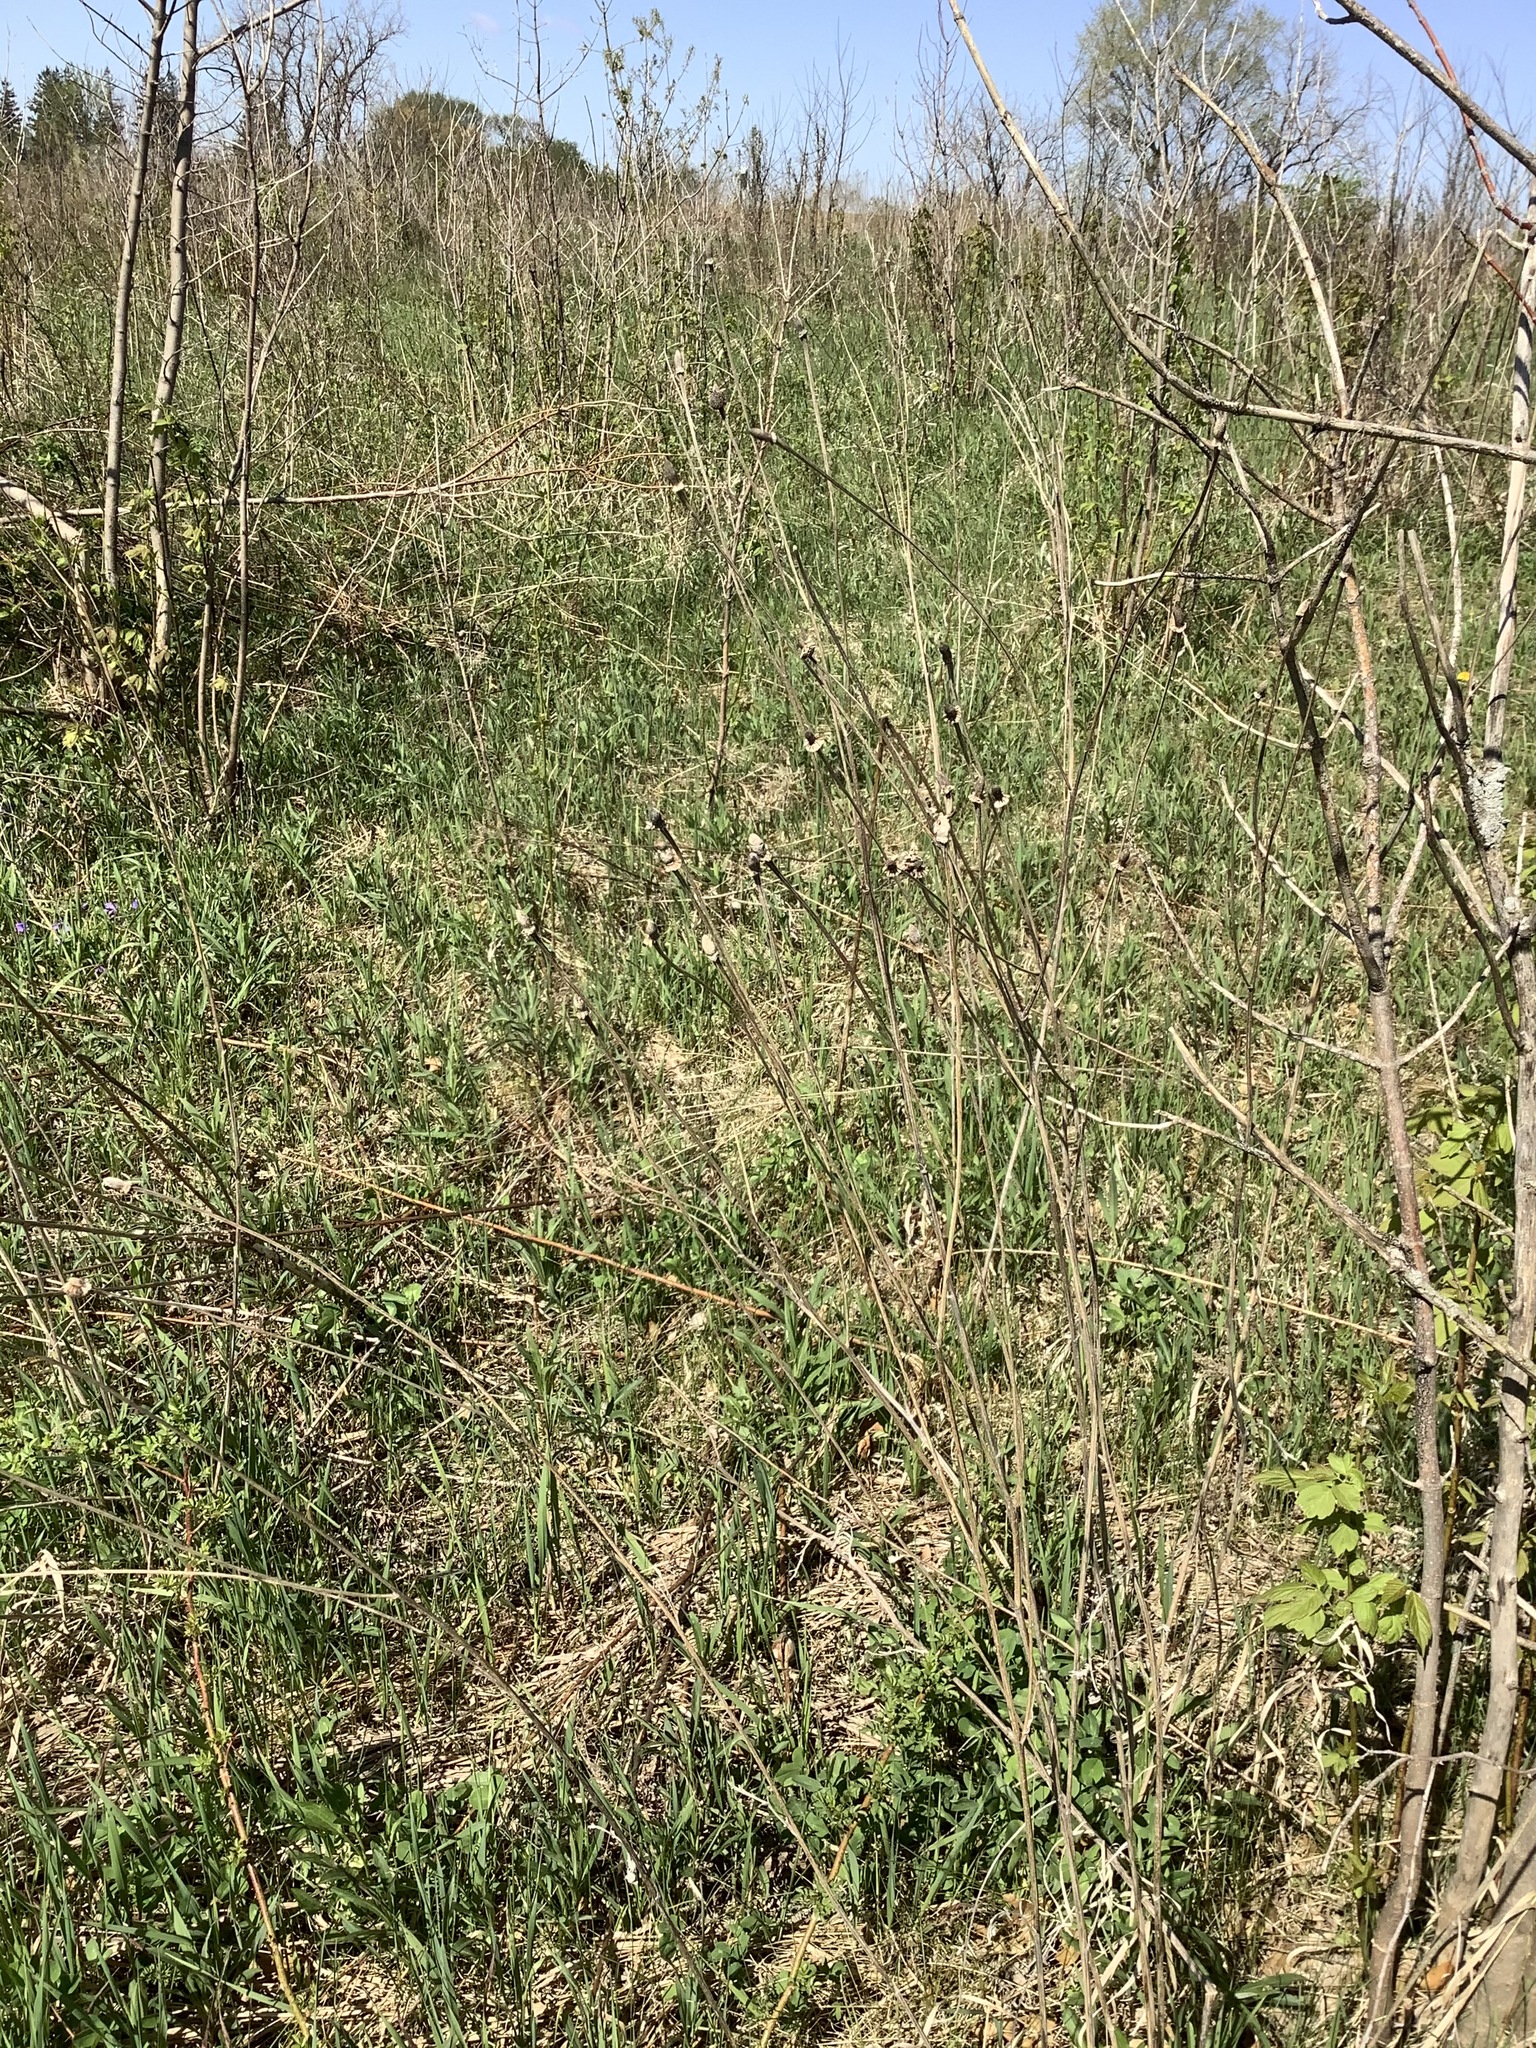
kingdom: Plantae
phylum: Tracheophyta
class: Magnoliopsida
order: Asterales
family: Asteraceae
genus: Ratibida
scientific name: Ratibida pinnata
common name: Drooping prairie-coneflower
